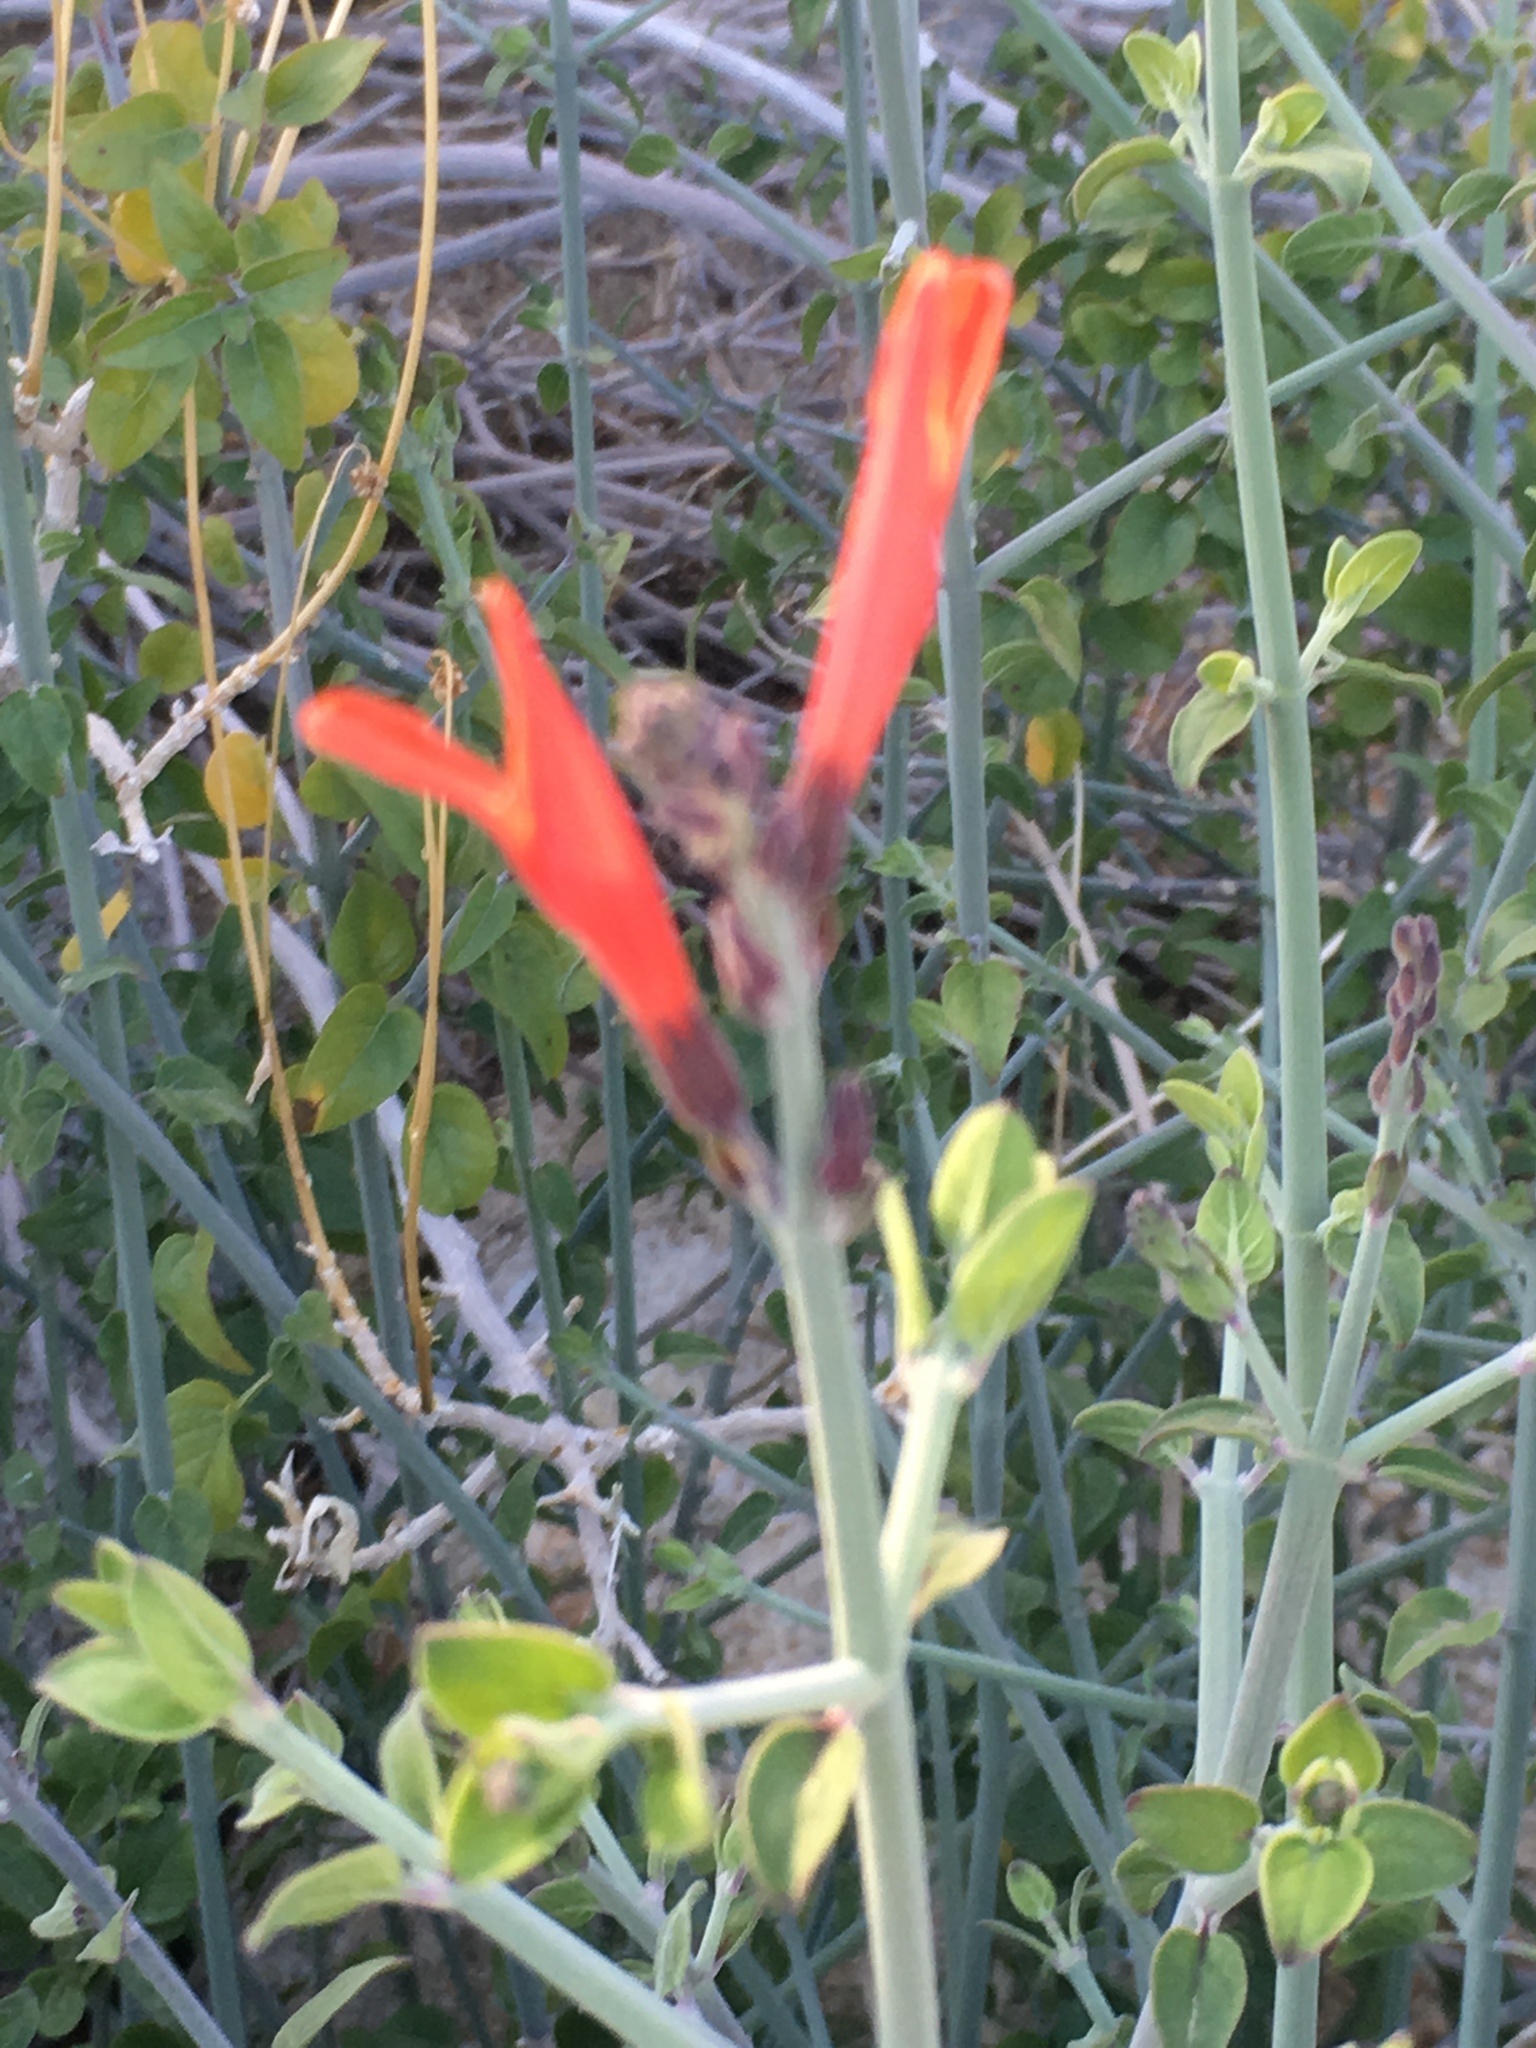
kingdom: Plantae
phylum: Tracheophyta
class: Magnoliopsida
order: Lamiales
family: Acanthaceae
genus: Justicia
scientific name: Justicia californica
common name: Chuparosa-honeysuckle
